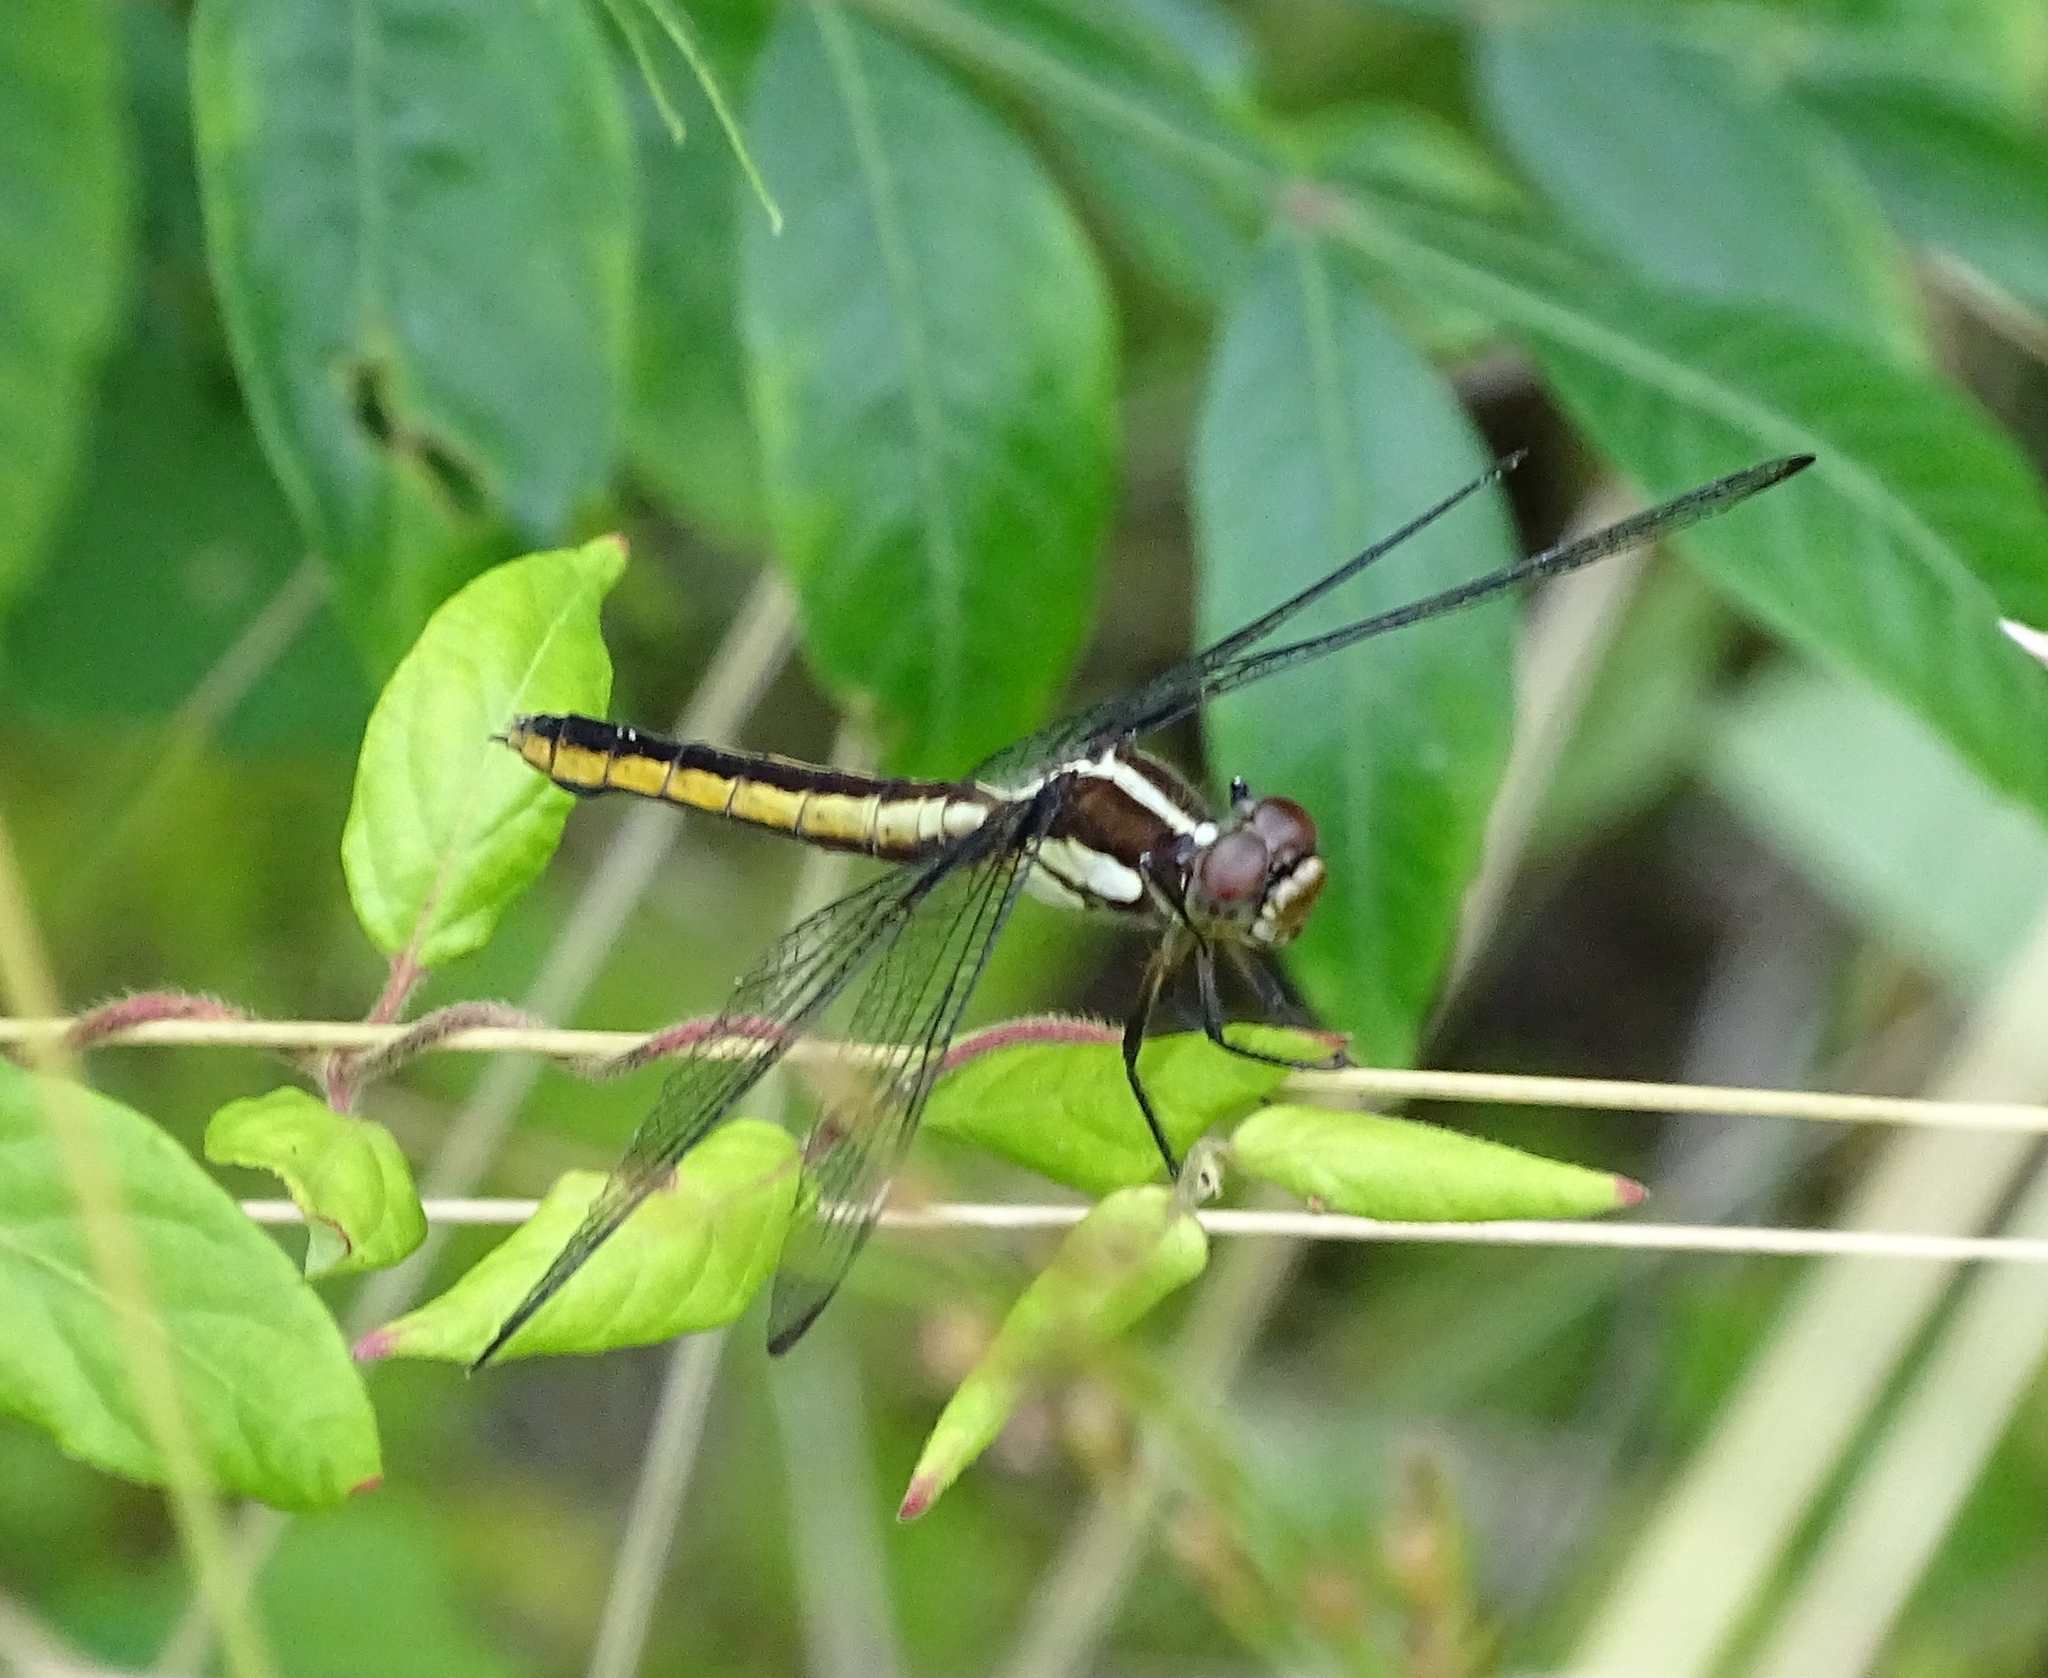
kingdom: Animalia
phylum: Arthropoda
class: Insecta
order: Odonata
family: Libellulidae
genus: Libellula
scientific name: Libellula cyanea
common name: Spangled skimmer
